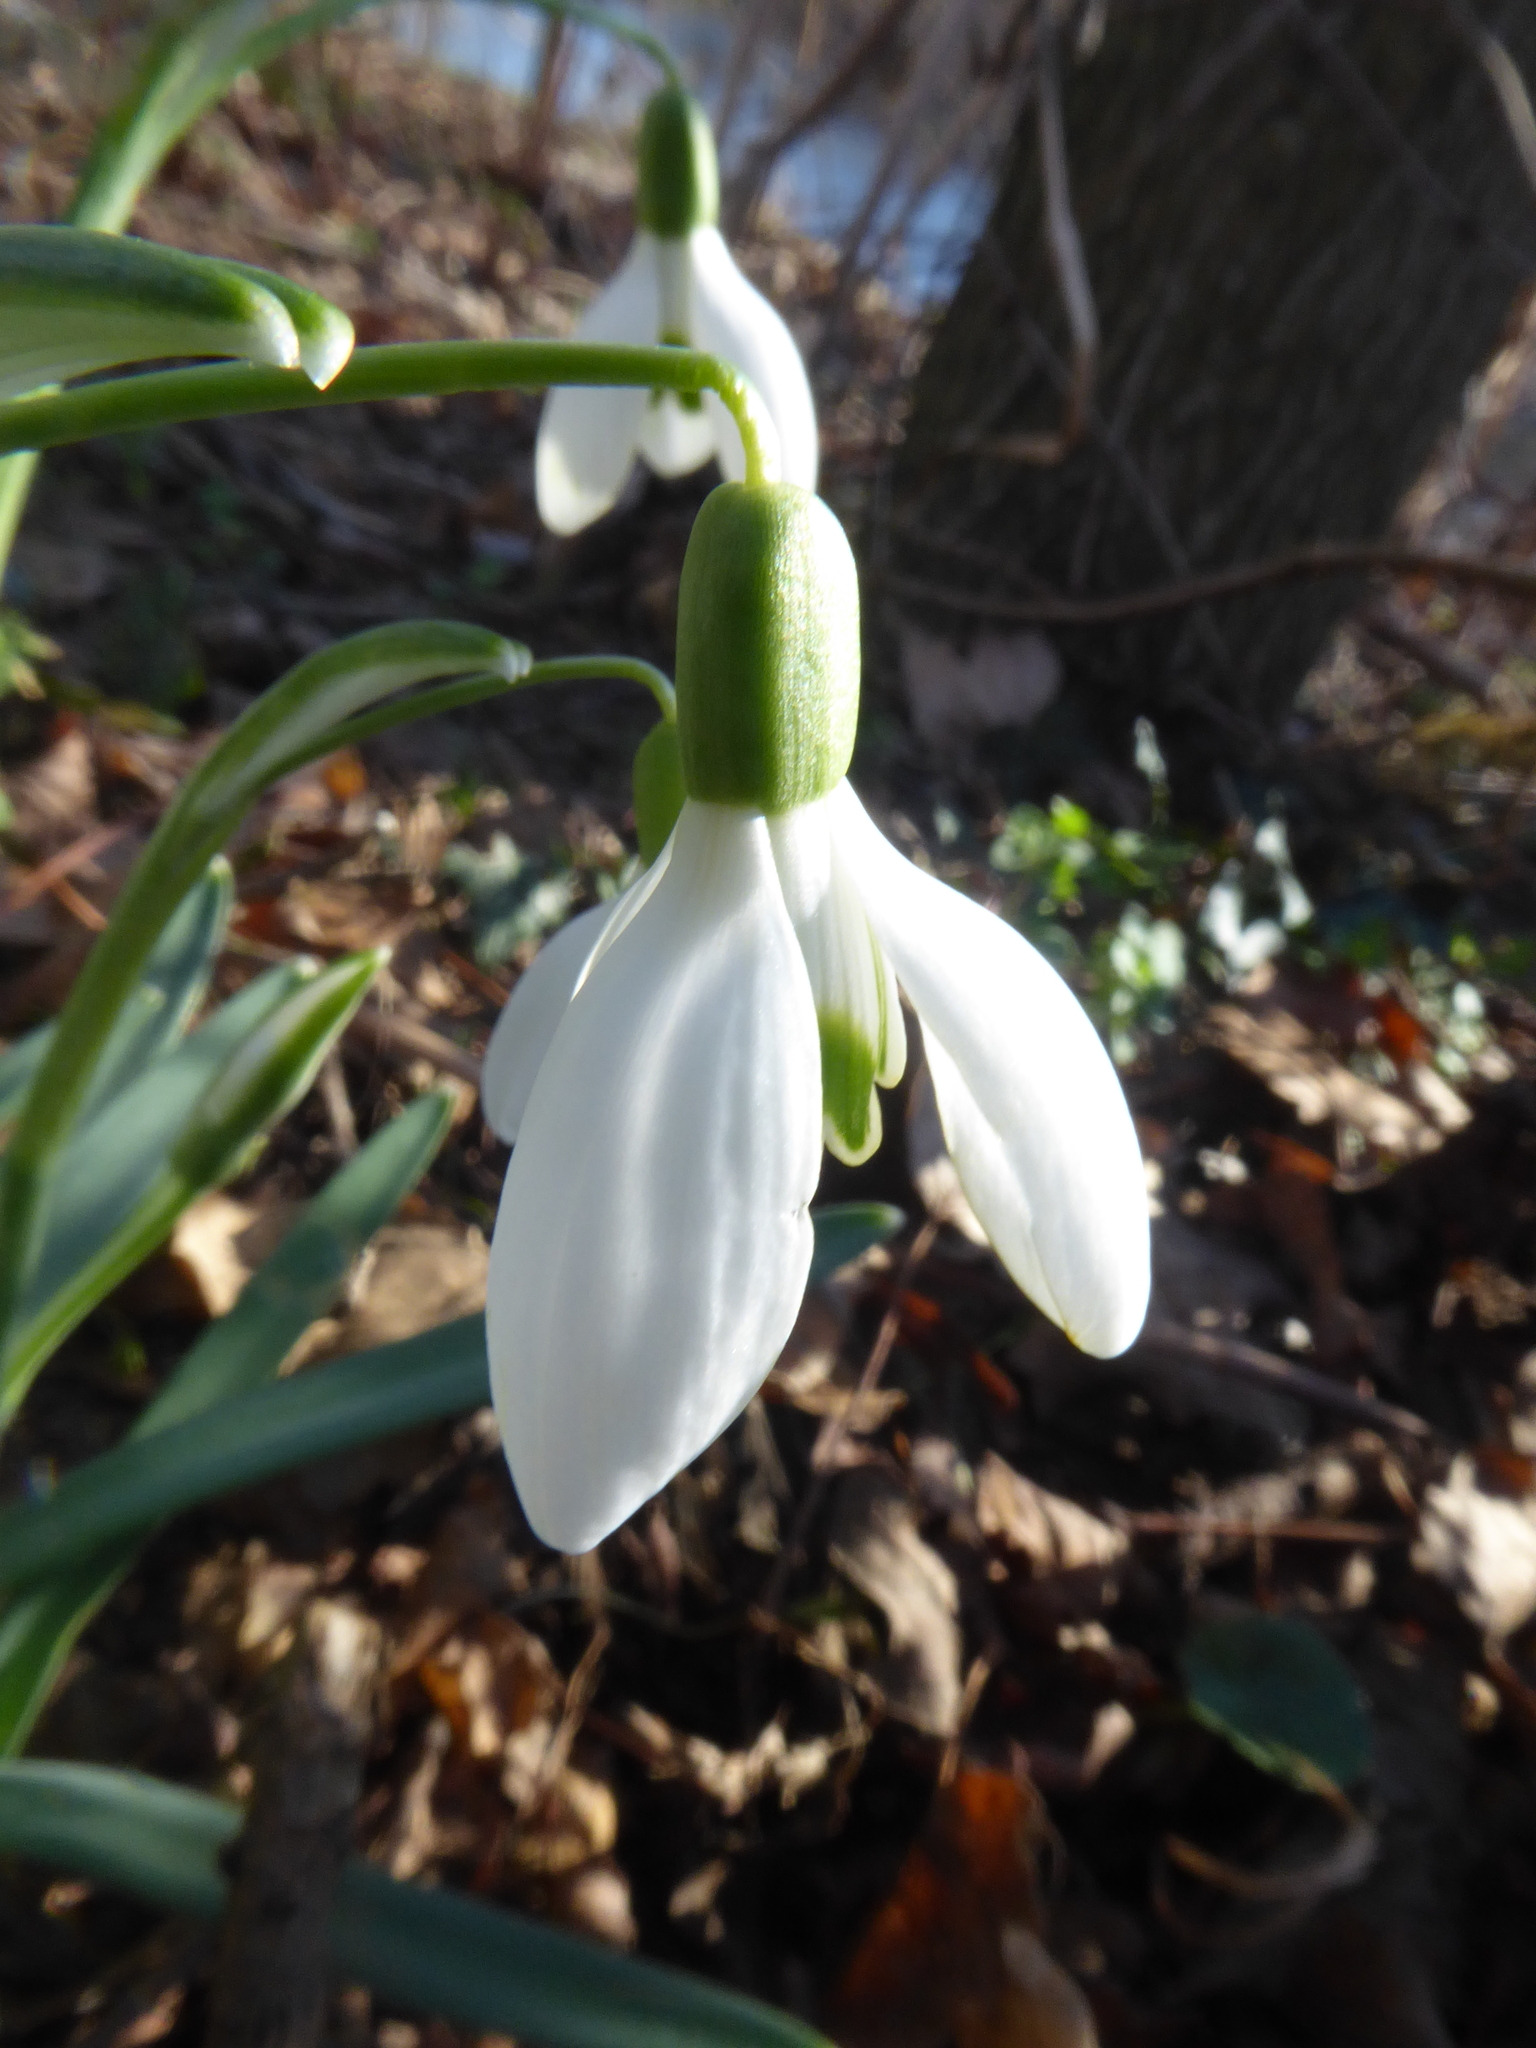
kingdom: Plantae
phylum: Tracheophyta
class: Liliopsida
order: Asparagales
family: Amaryllidaceae
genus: Galanthus
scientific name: Galanthus nivalis
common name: Snowdrop
